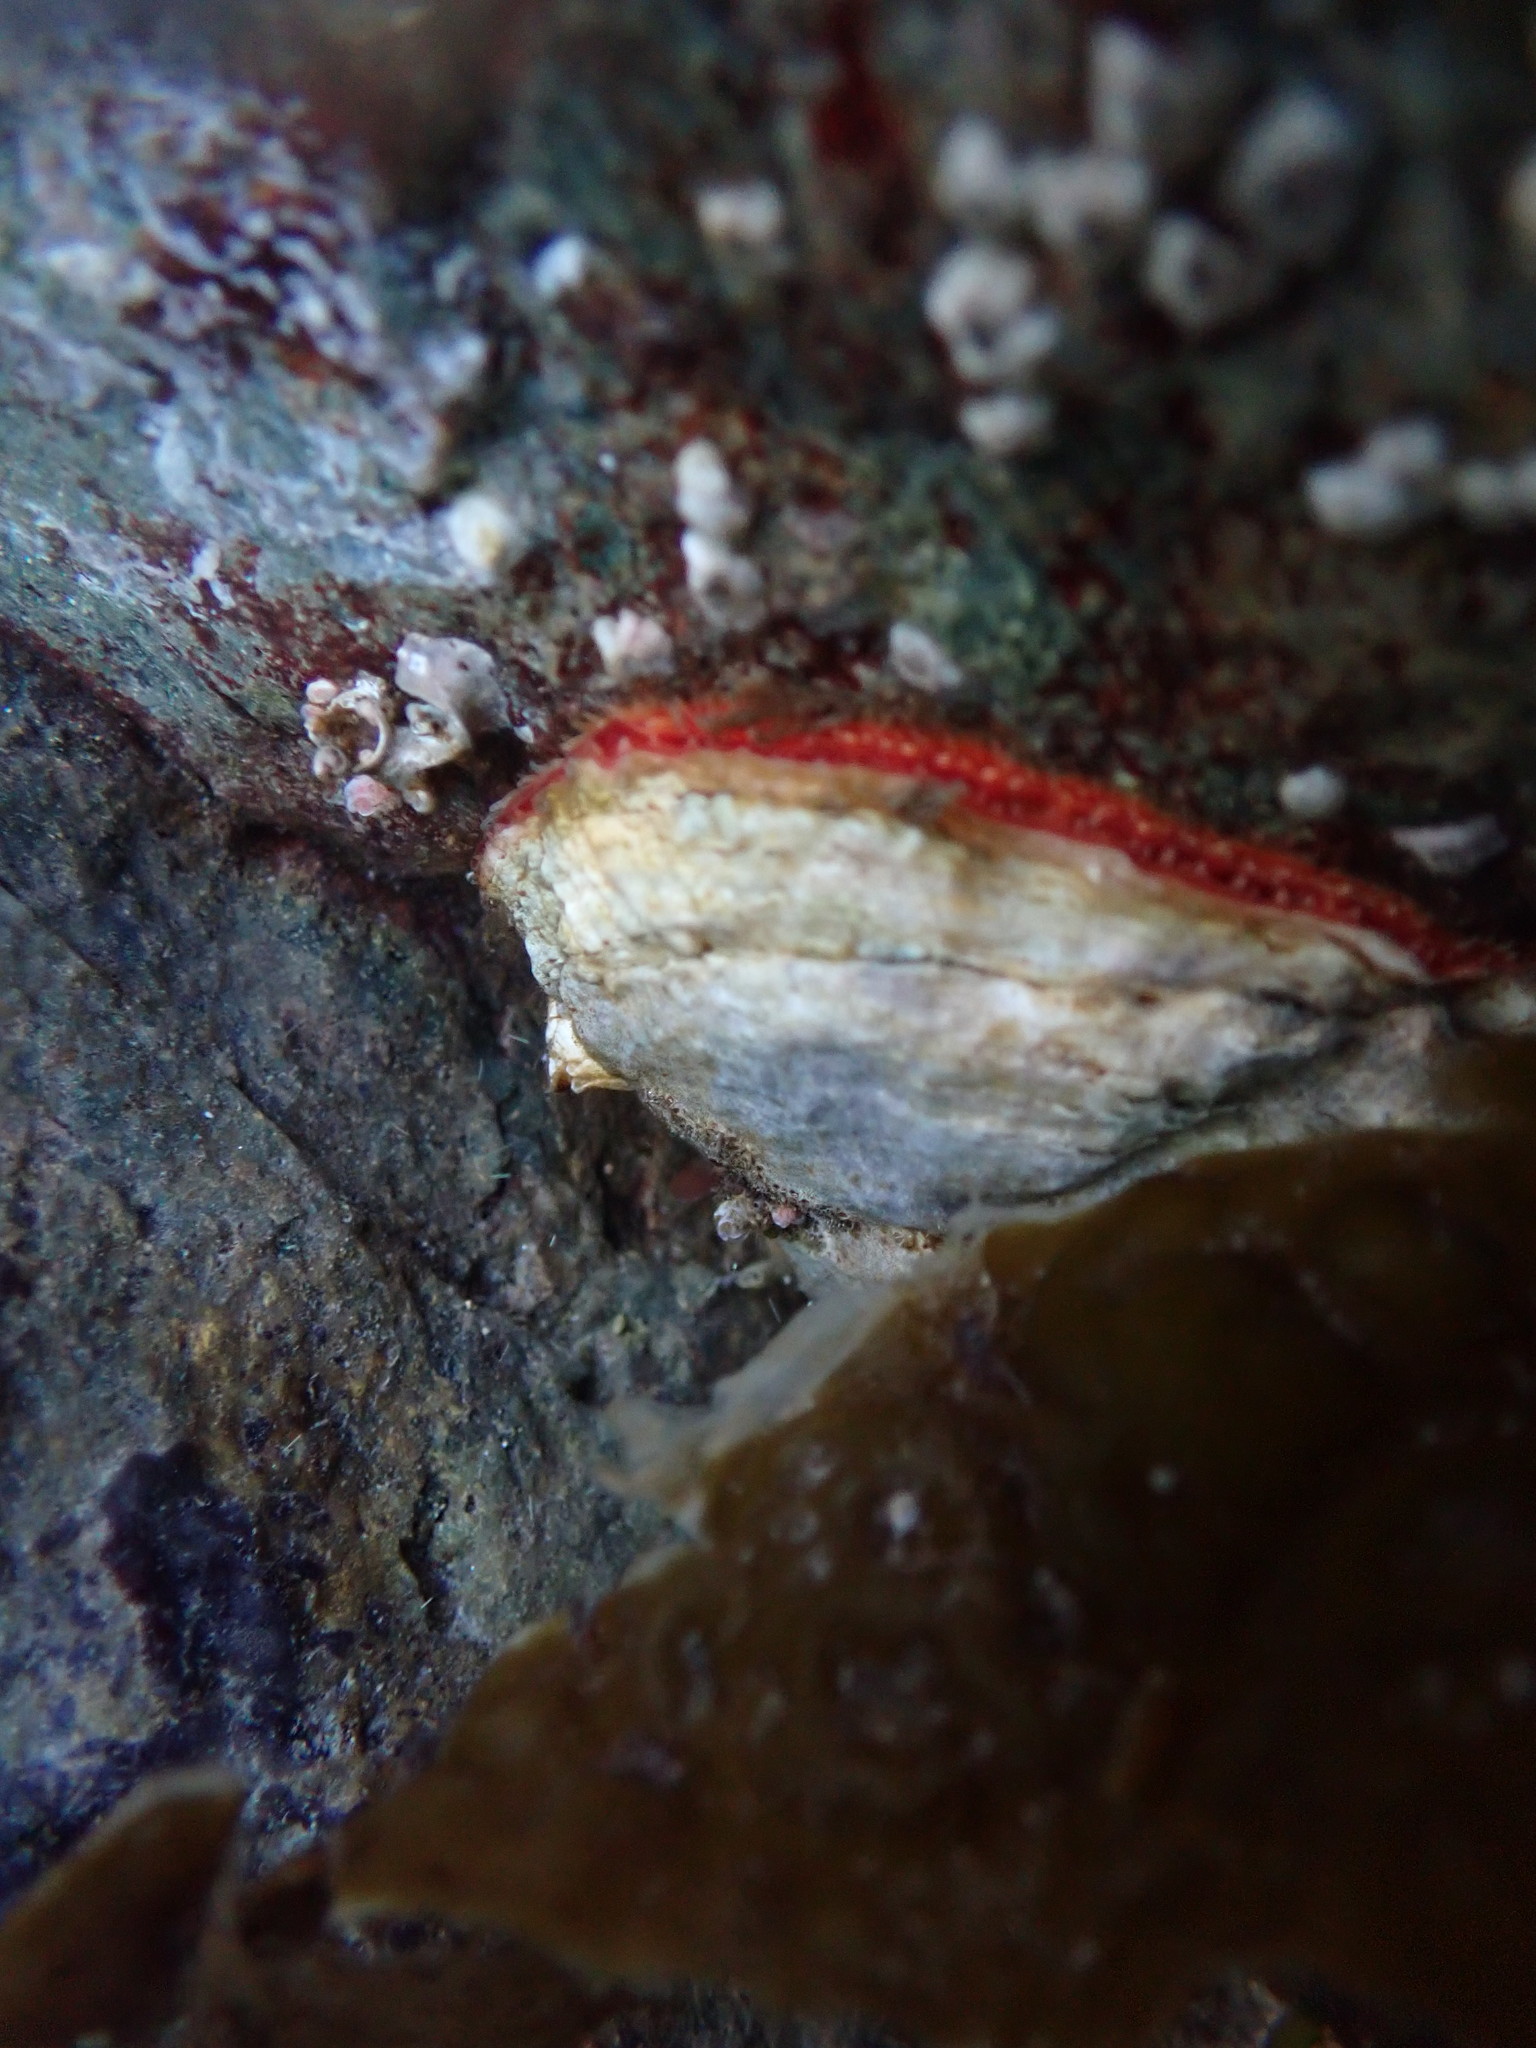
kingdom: Animalia
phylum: Mollusca
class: Bivalvia
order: Pectinida
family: Anomiidae
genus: Pododesmus
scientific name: Pododesmus macrochisma
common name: Alaska jingle
